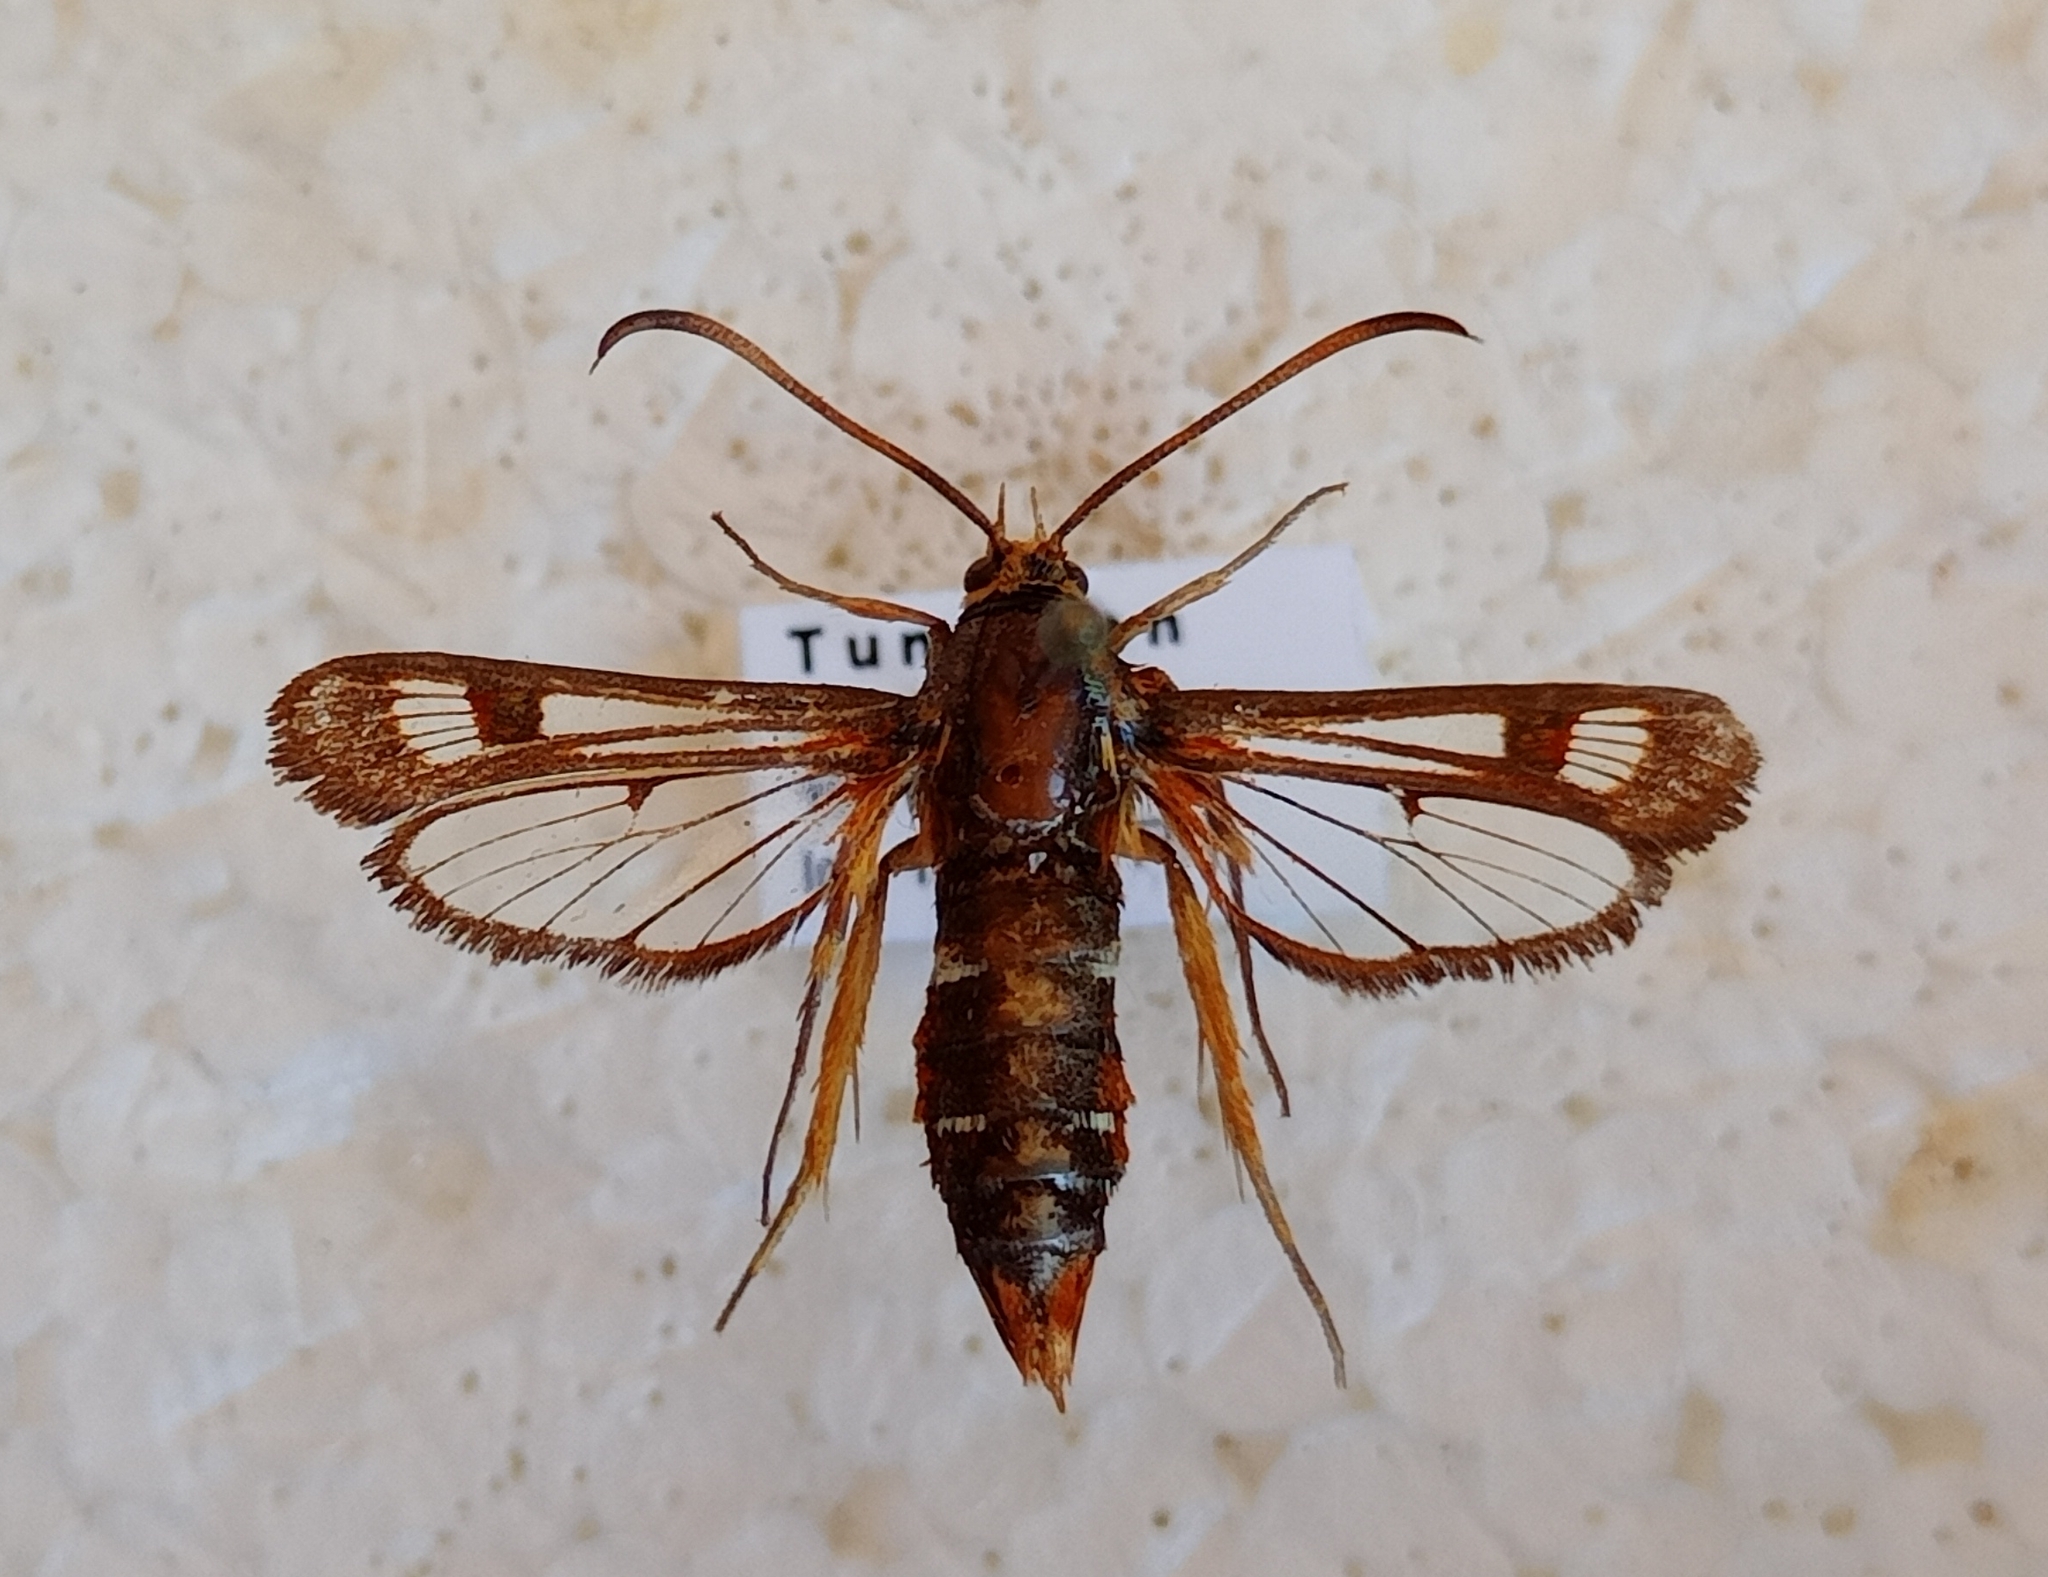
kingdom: Animalia
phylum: Arthropoda
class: Insecta
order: Lepidoptera
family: Sesiidae
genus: Pyropteron
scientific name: Pyropteron doryliformis
